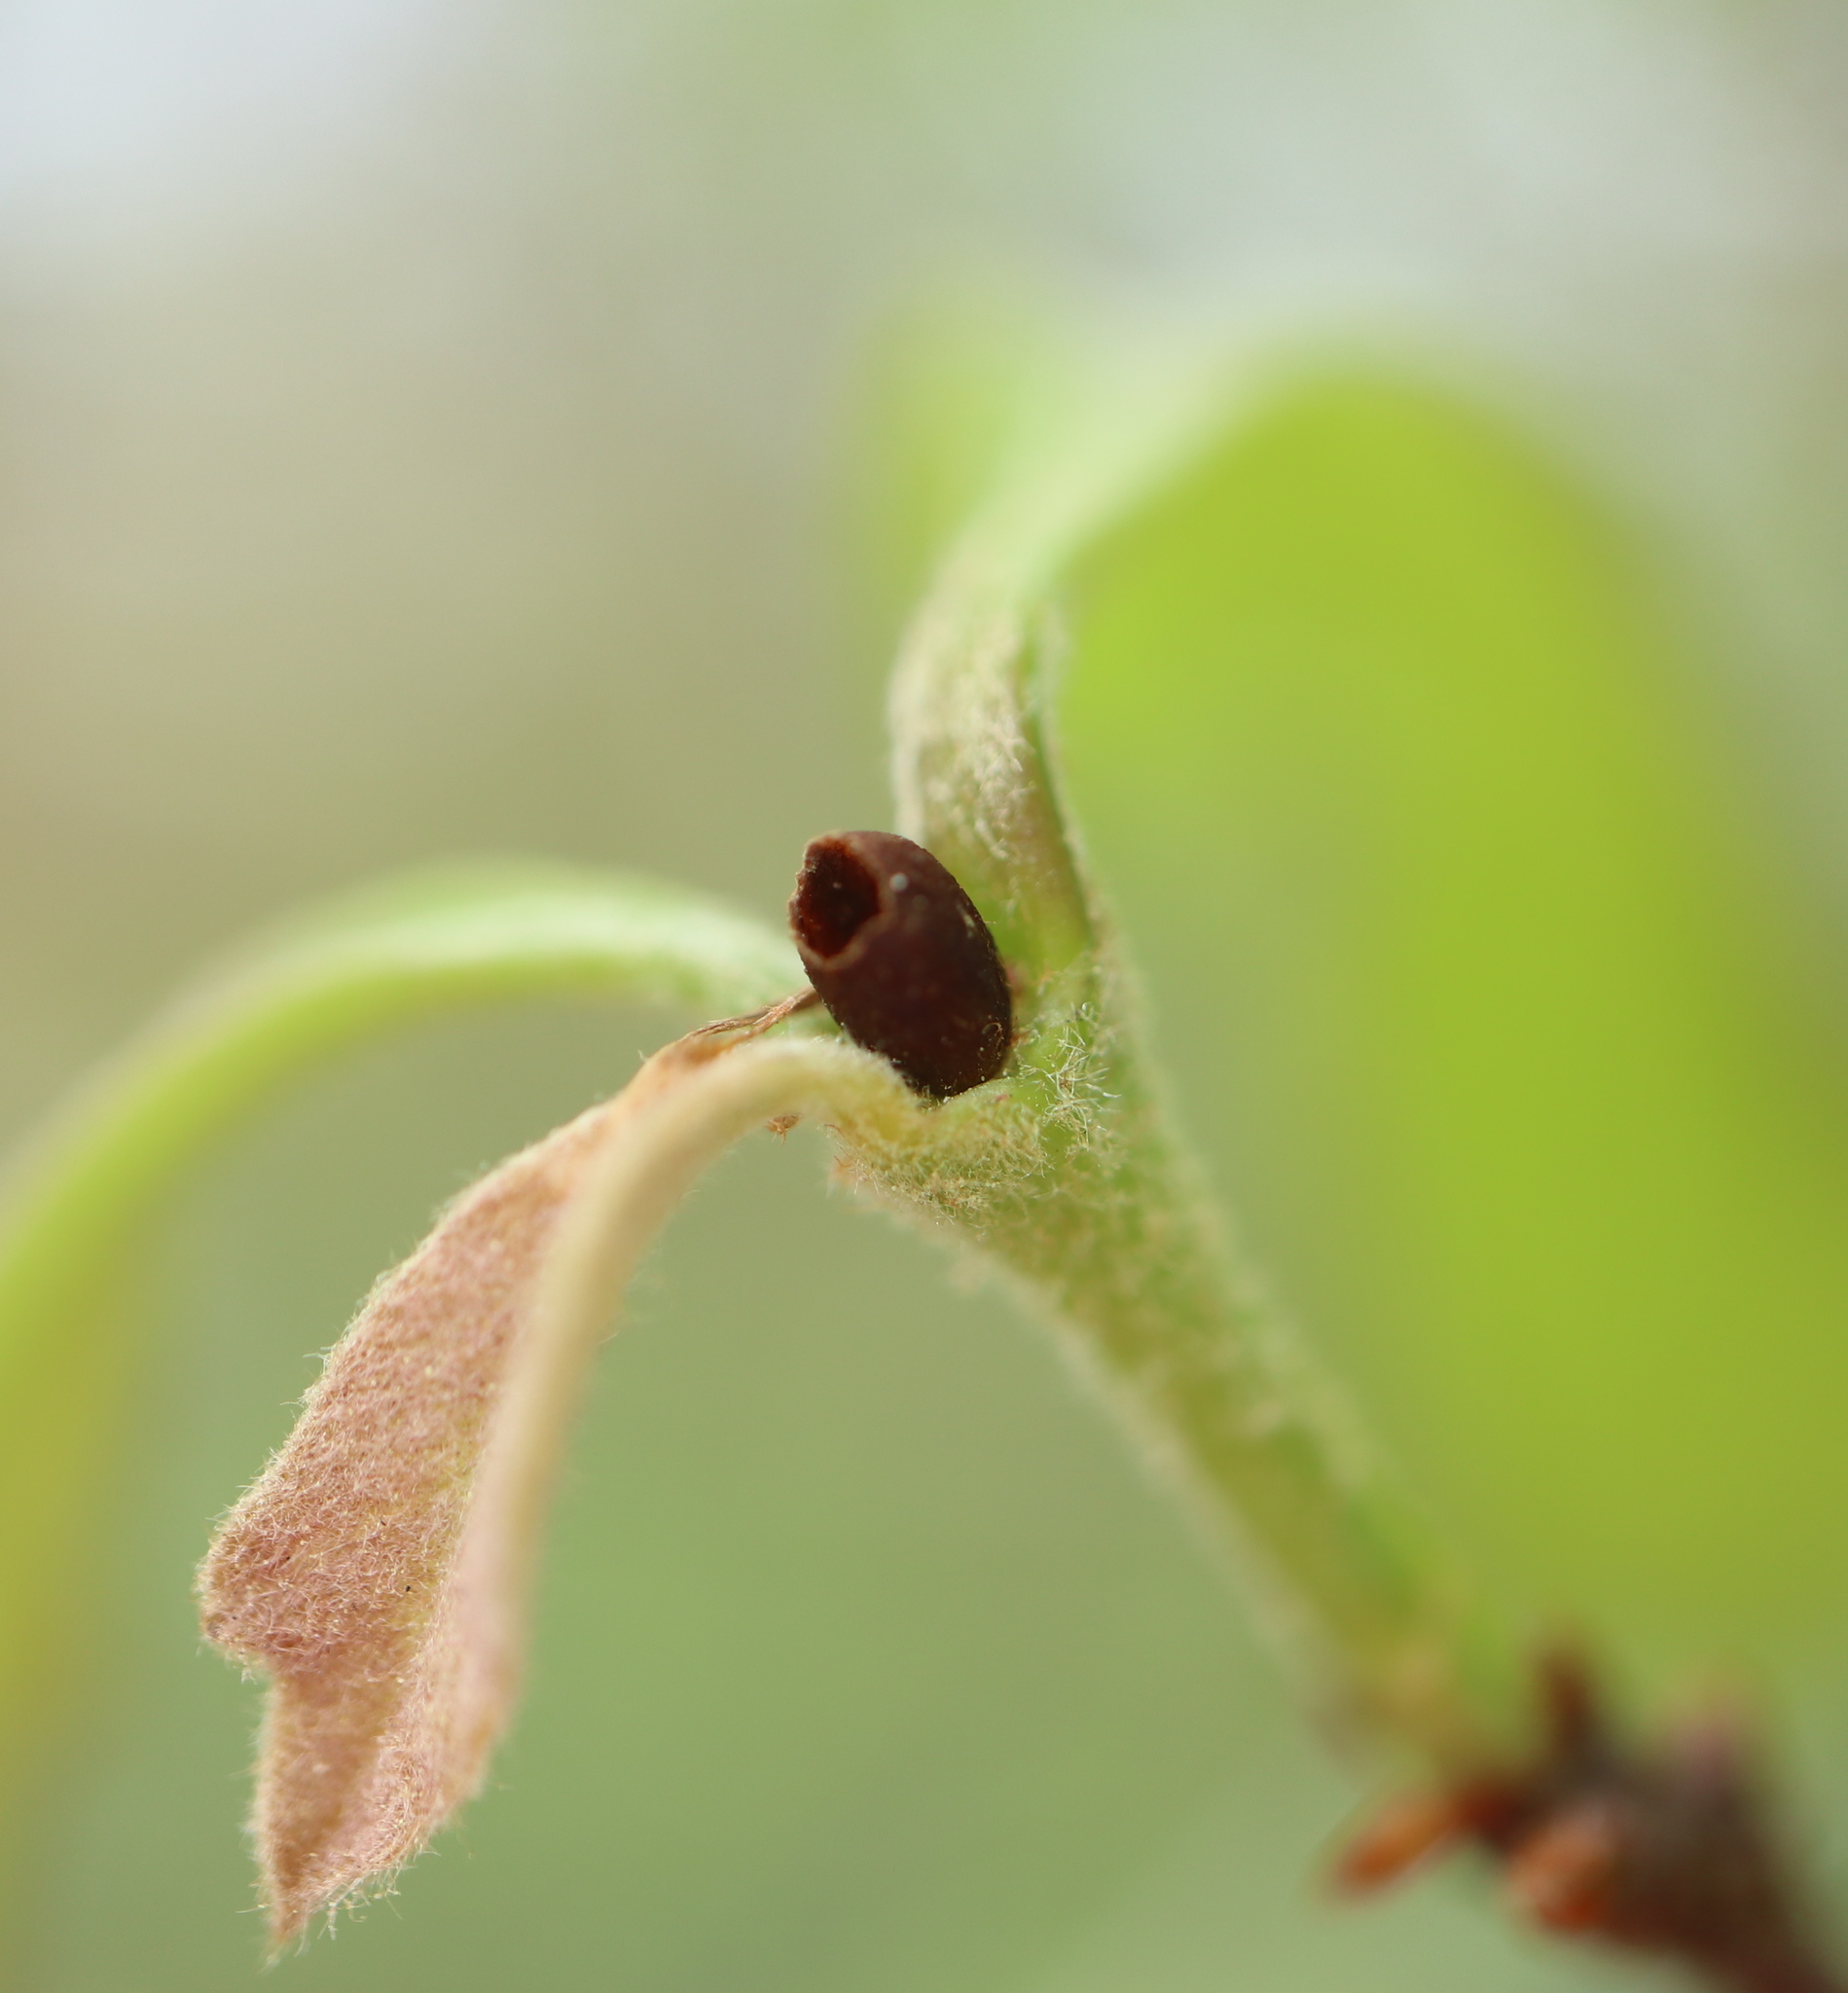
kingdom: Animalia
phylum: Arthropoda
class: Insecta
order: Hymenoptera
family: Cynipidae
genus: Philonix
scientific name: Philonix fulvicollis
